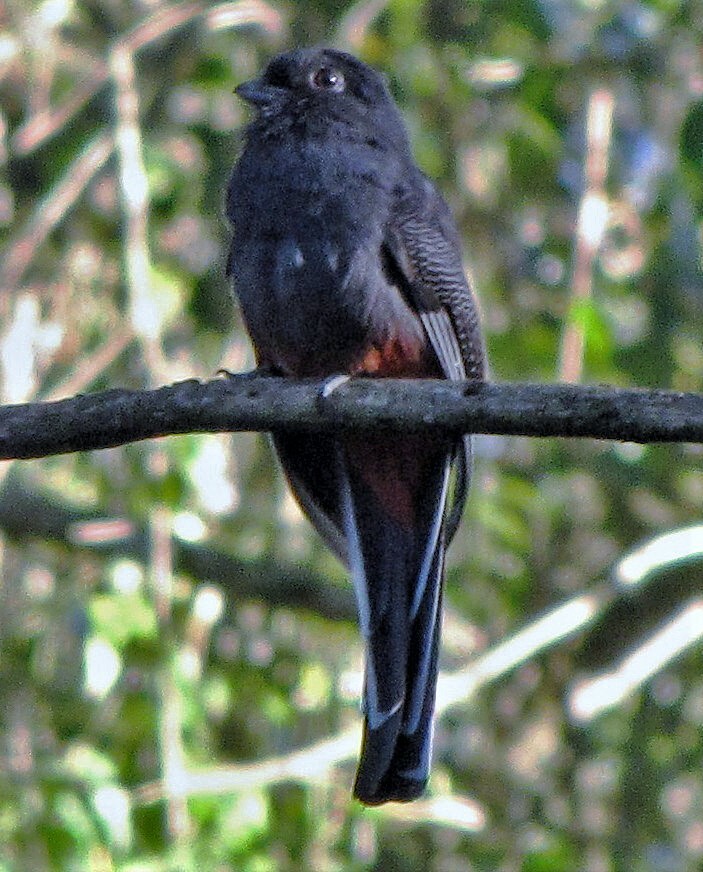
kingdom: Animalia
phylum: Chordata
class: Aves
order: Trogoniformes
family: Trogonidae
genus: Trogon
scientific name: Trogon surrucura
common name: Surucua trogon
